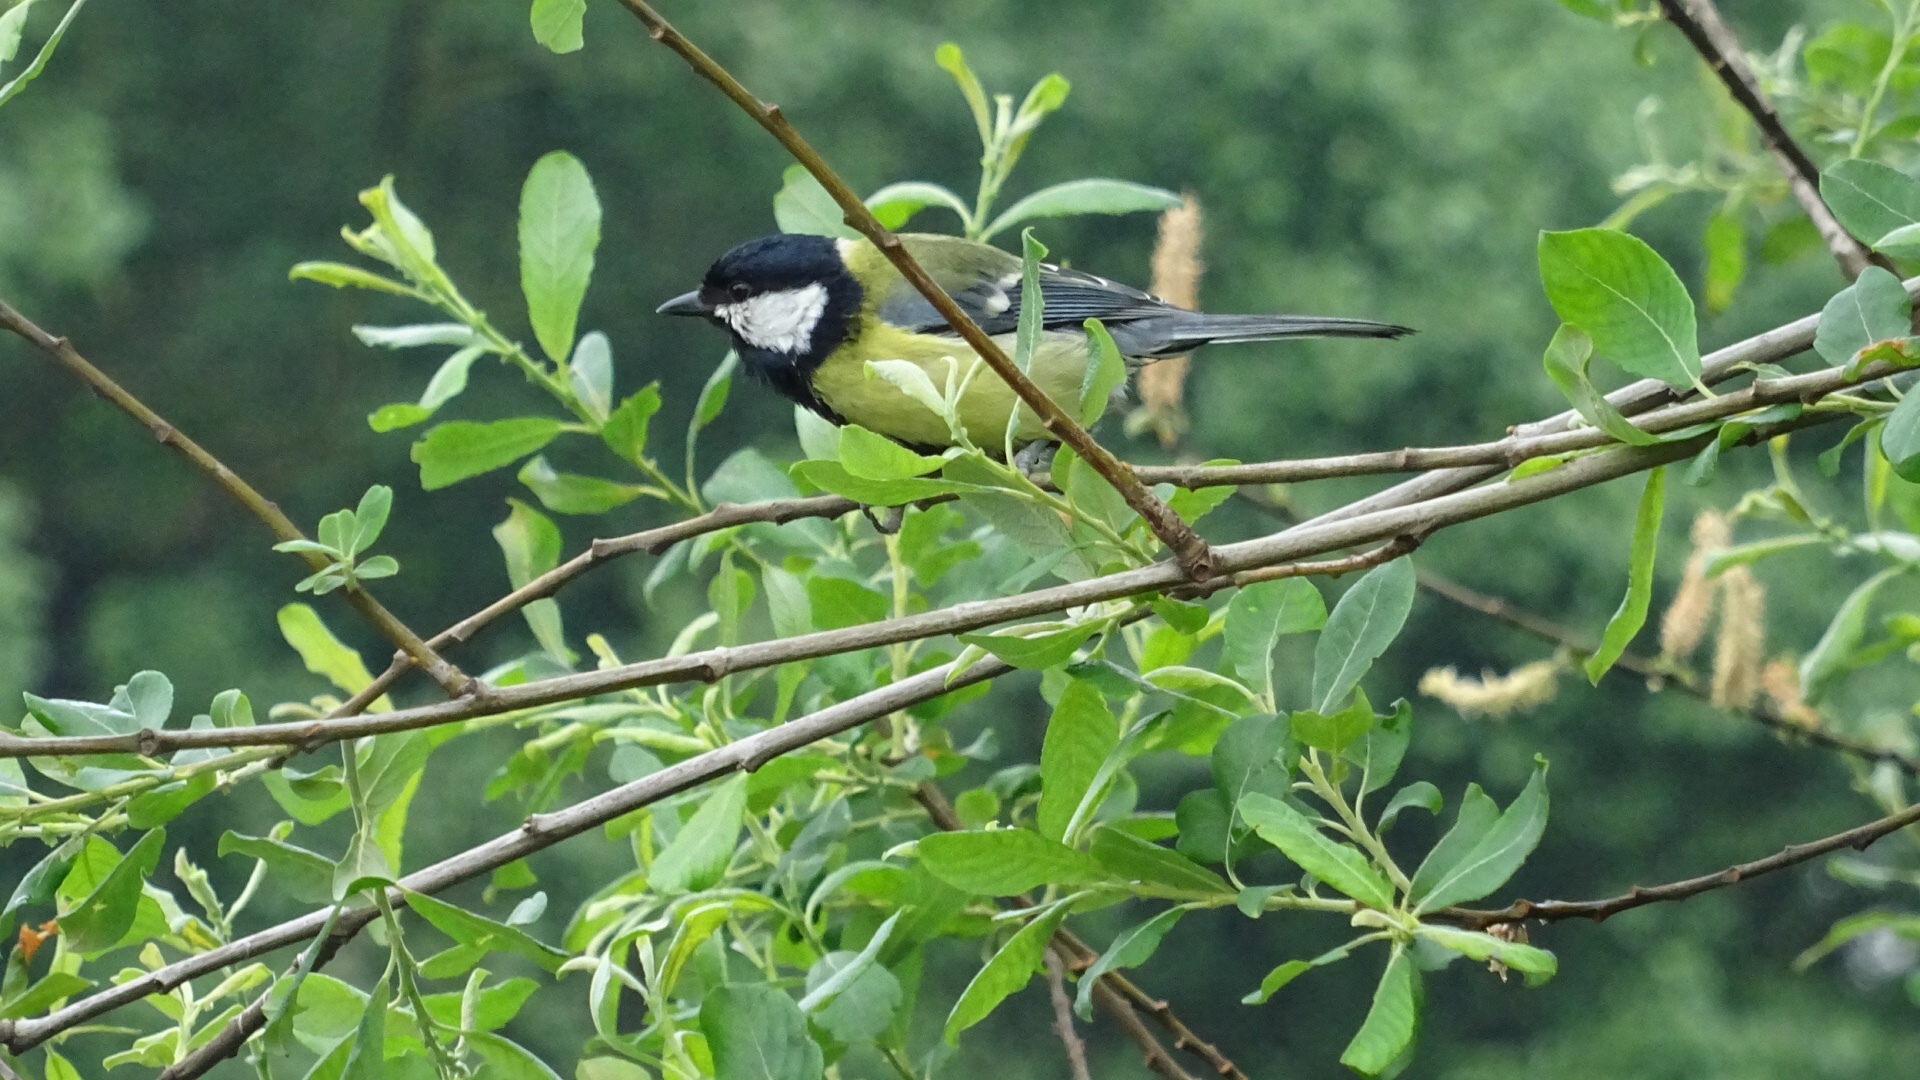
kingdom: Animalia
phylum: Chordata
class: Aves
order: Passeriformes
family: Paridae
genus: Parus
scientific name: Parus major
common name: Great tit
